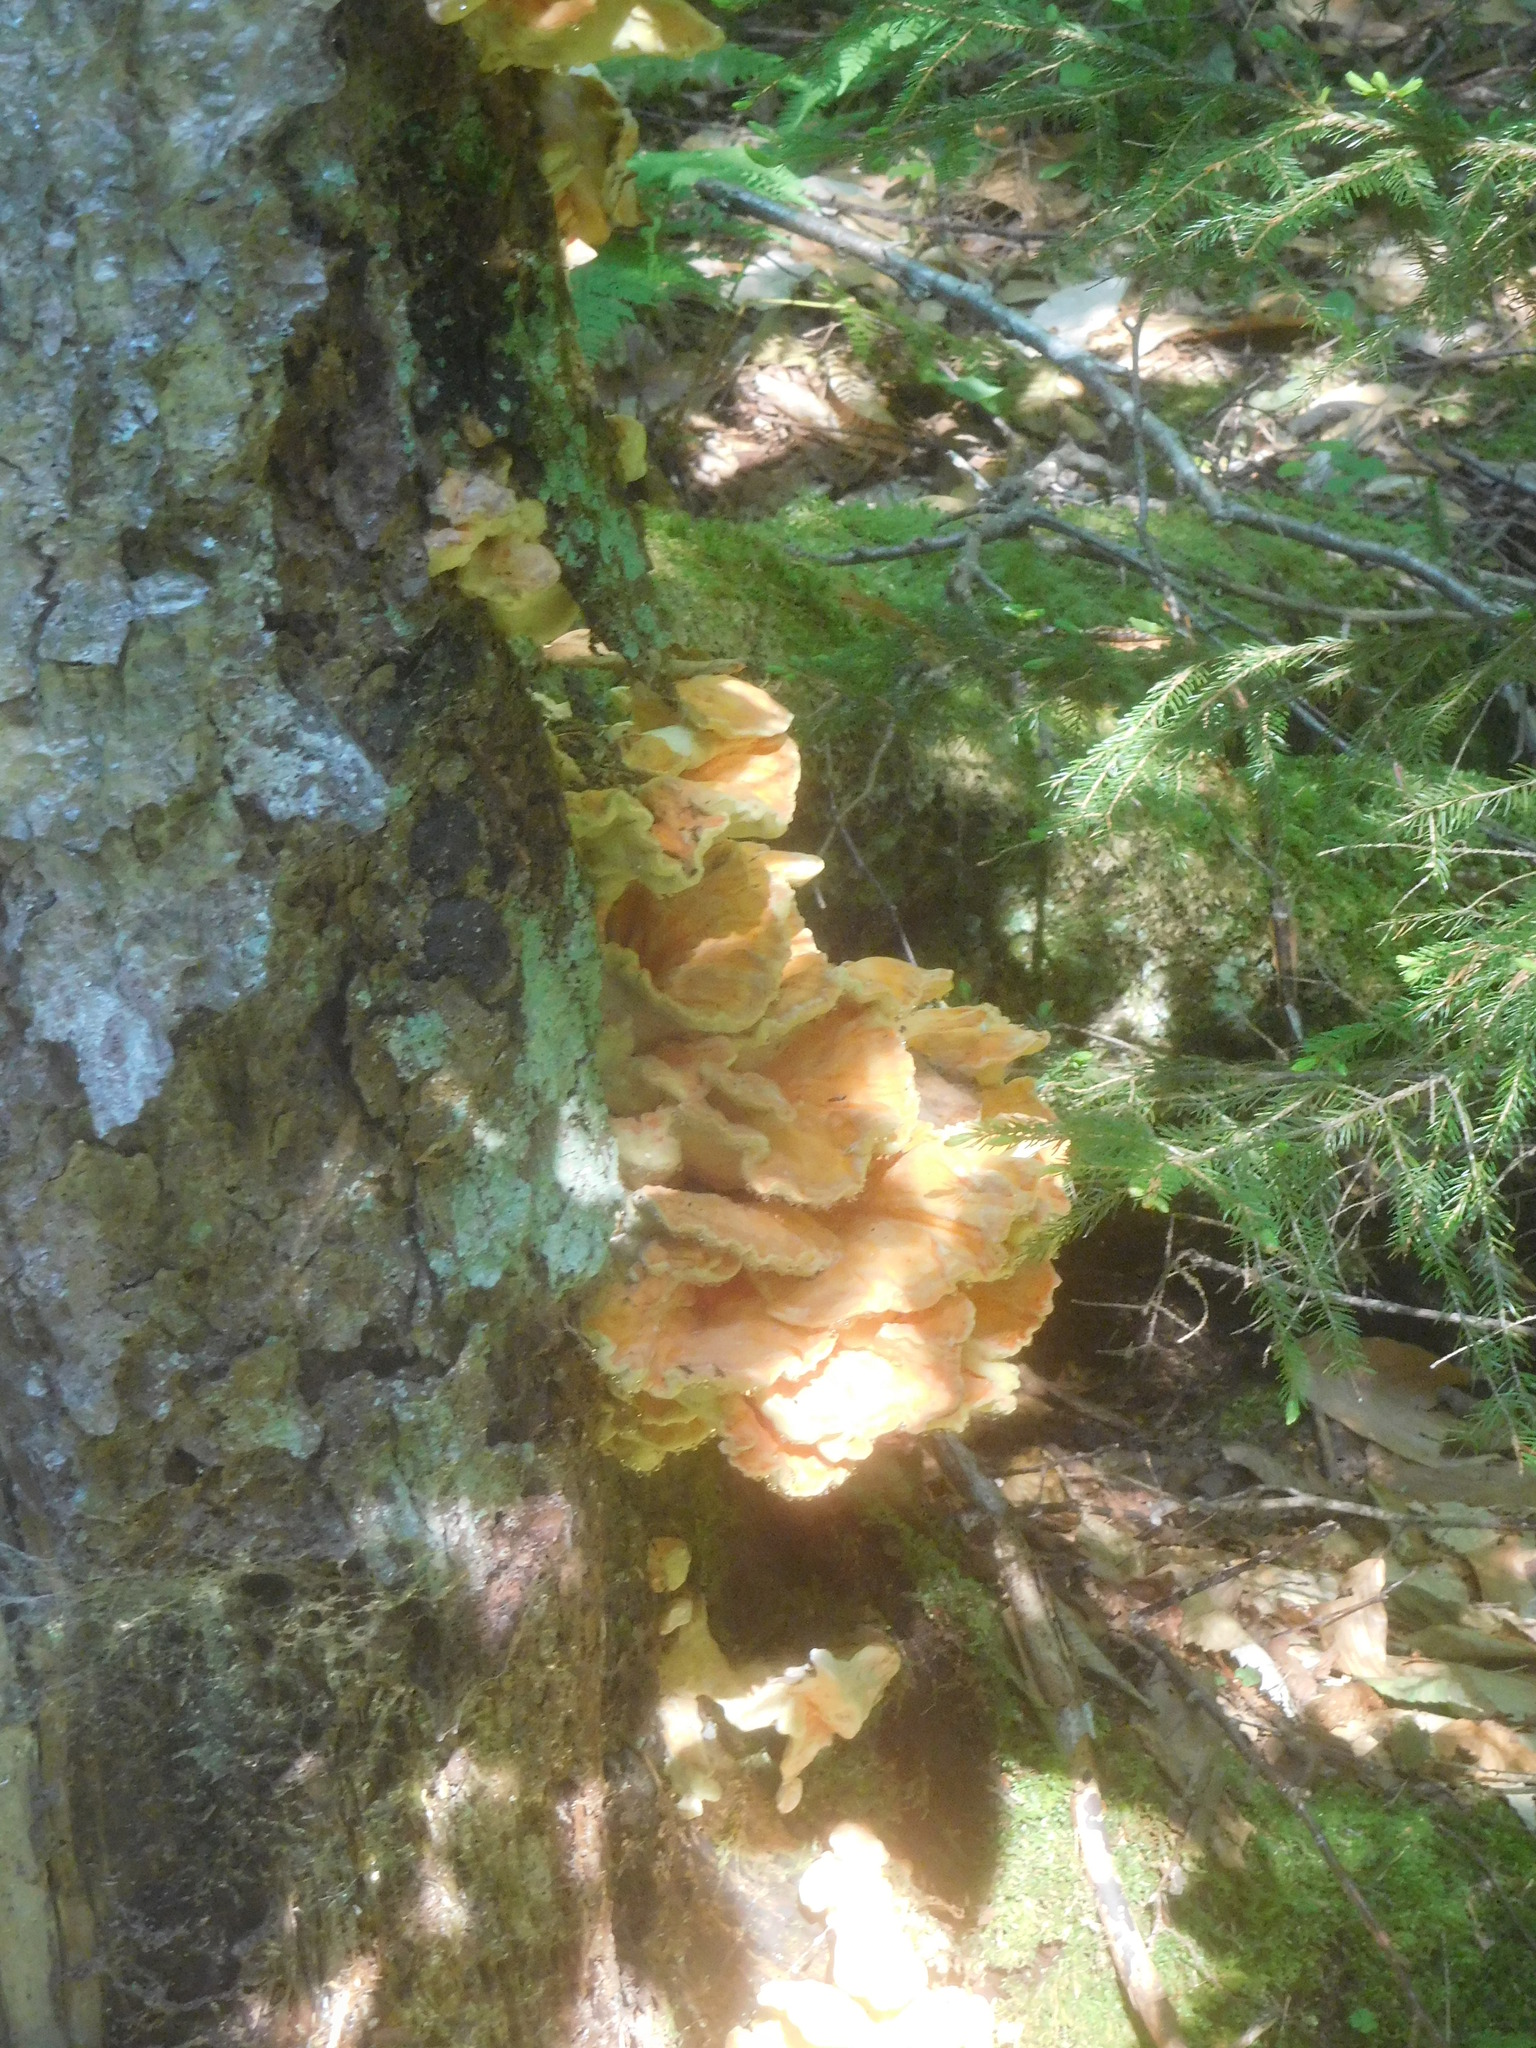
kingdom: Fungi
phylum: Basidiomycota
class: Agaricomycetes
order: Polyporales
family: Laetiporaceae
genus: Laetiporus
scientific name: Laetiporus sulphureus
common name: Chicken of the woods
